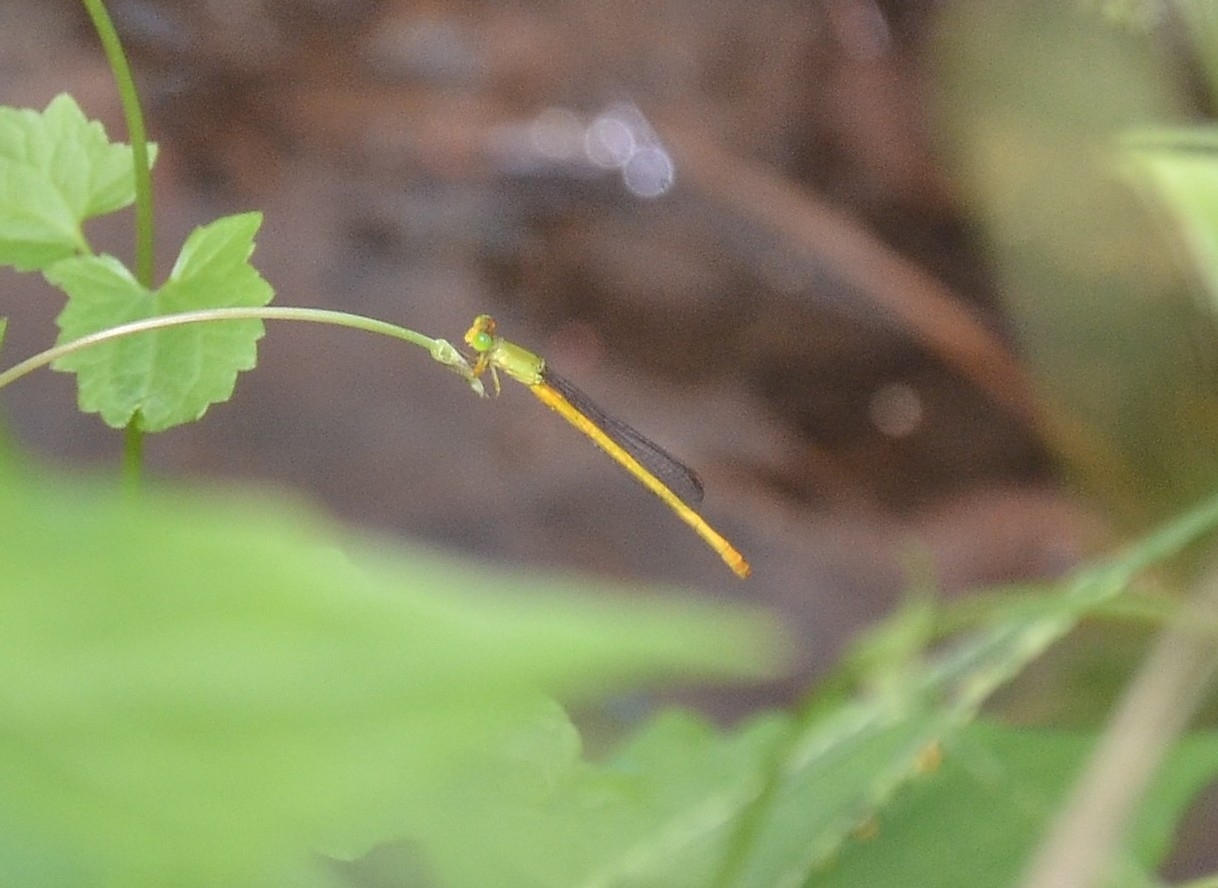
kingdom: Animalia
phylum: Arthropoda
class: Insecta
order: Odonata
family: Coenagrionidae
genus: Ceriagrion
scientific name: Ceriagrion coromandelianum
